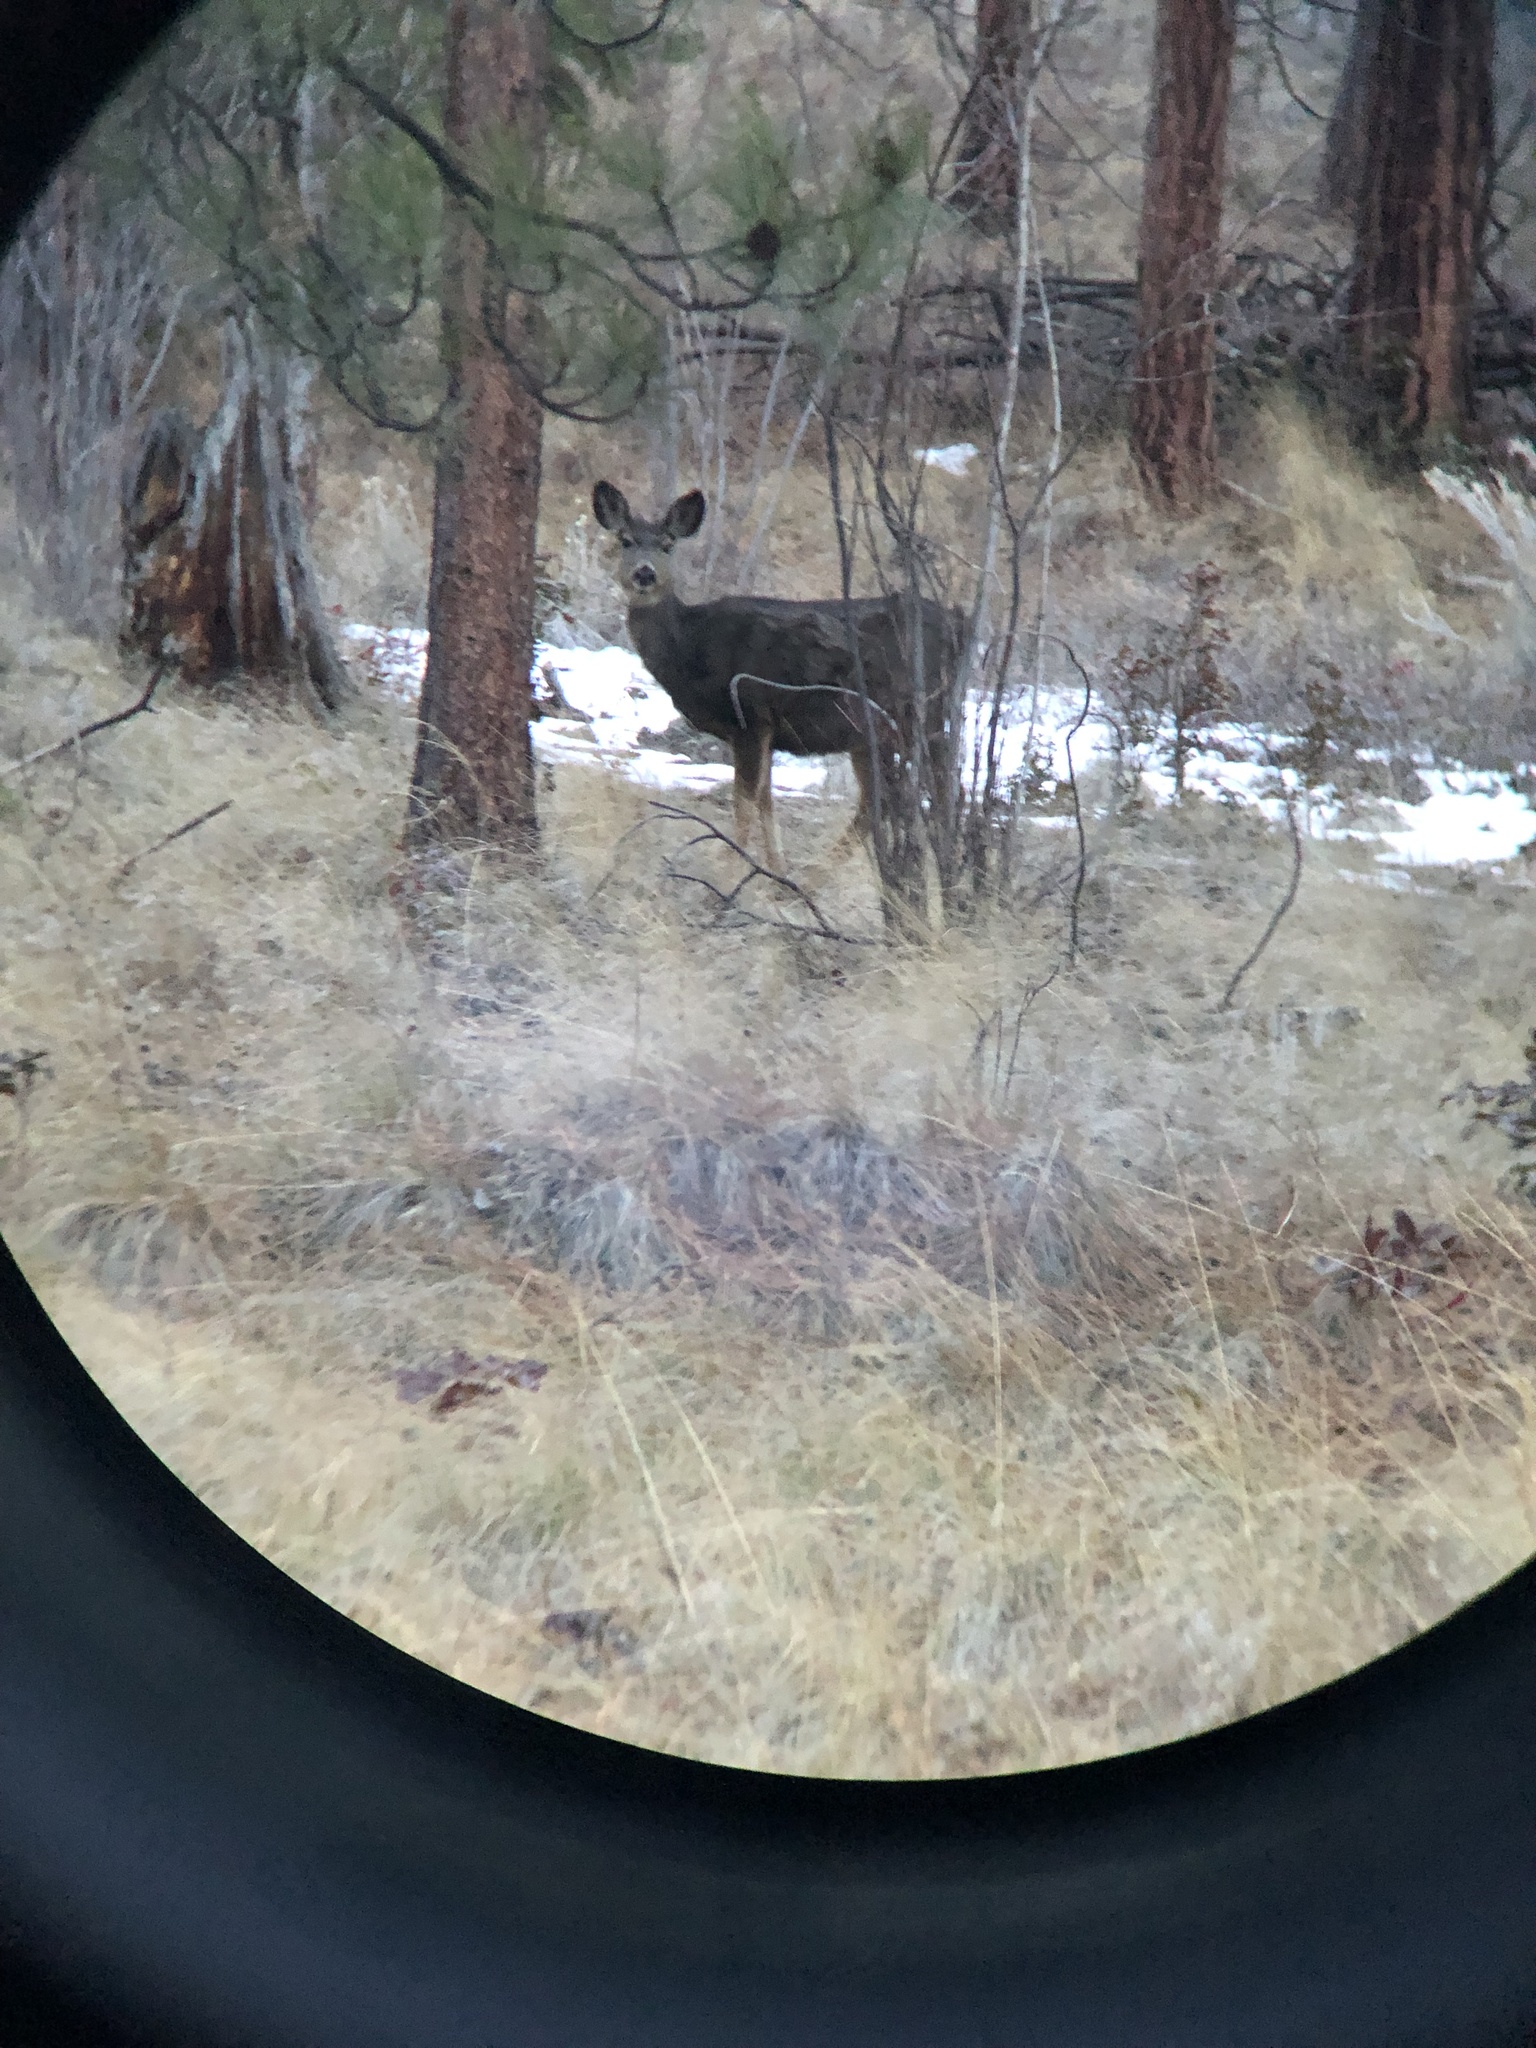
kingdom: Animalia
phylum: Chordata
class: Mammalia
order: Artiodactyla
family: Cervidae
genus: Odocoileus
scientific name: Odocoileus hemionus
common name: Mule deer
